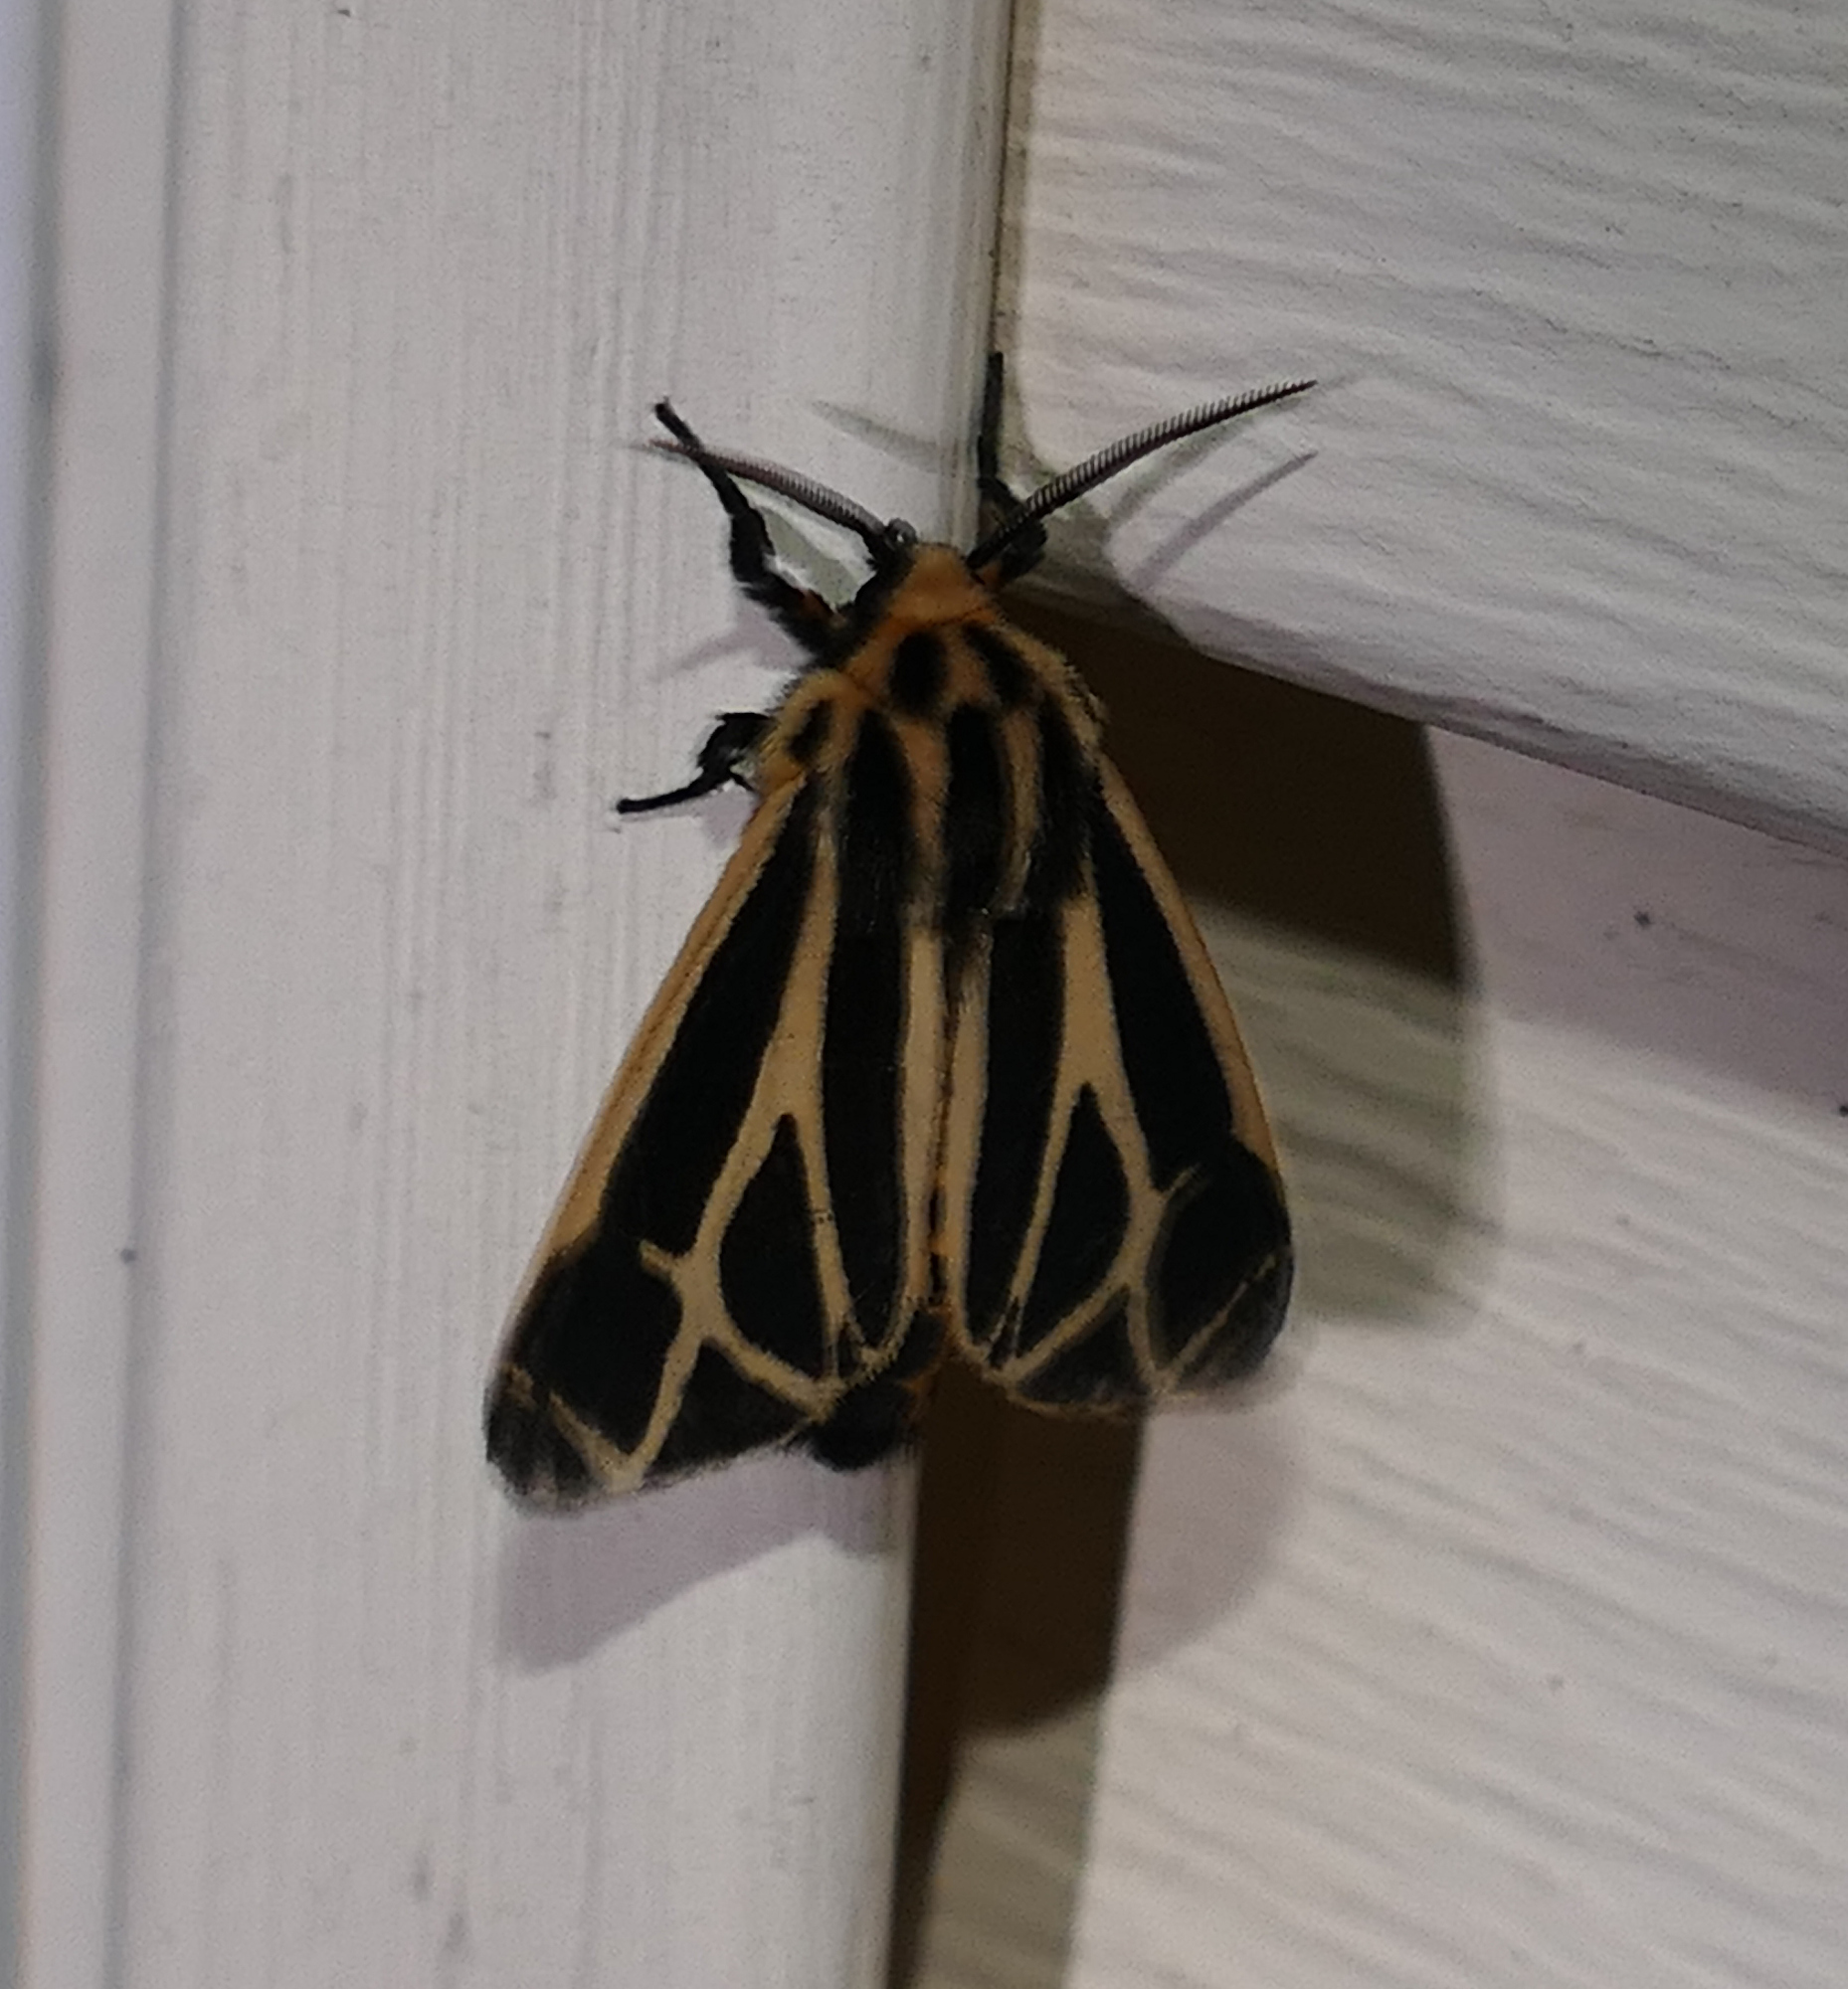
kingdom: Animalia
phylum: Arthropoda
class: Insecta
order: Lepidoptera
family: Erebidae
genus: Apantesis
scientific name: Apantesis phalerata
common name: Harnessed tiger moth
